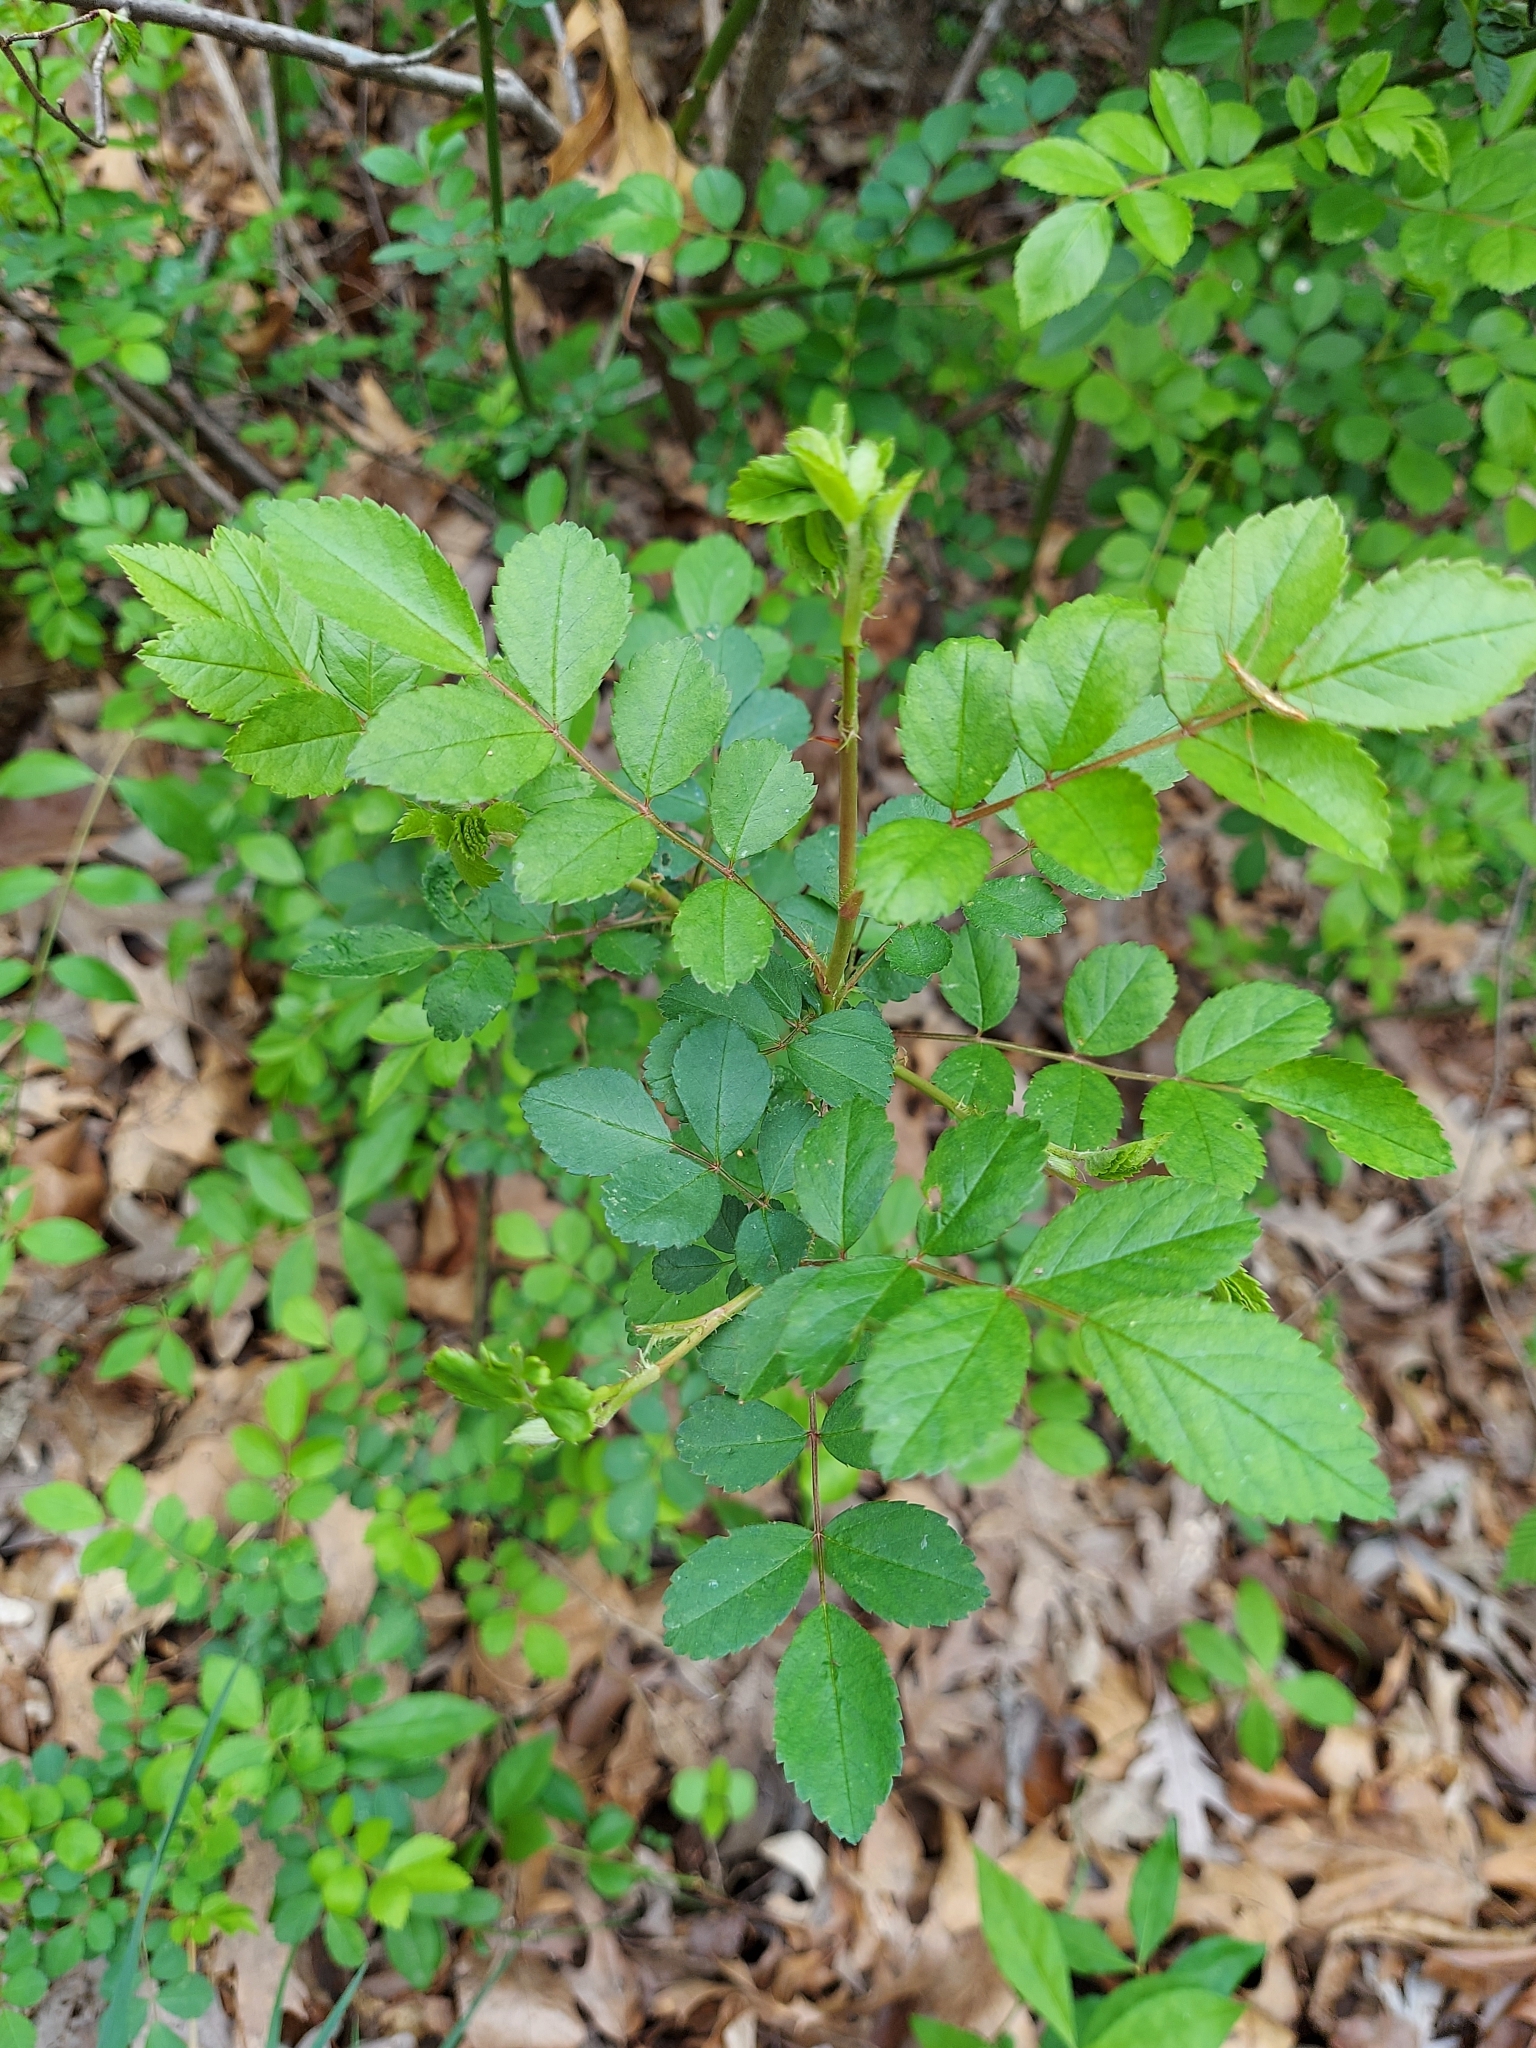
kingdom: Plantae
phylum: Tracheophyta
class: Magnoliopsida
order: Rosales
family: Rosaceae
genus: Rosa
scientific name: Rosa multiflora
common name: Multiflora rose
